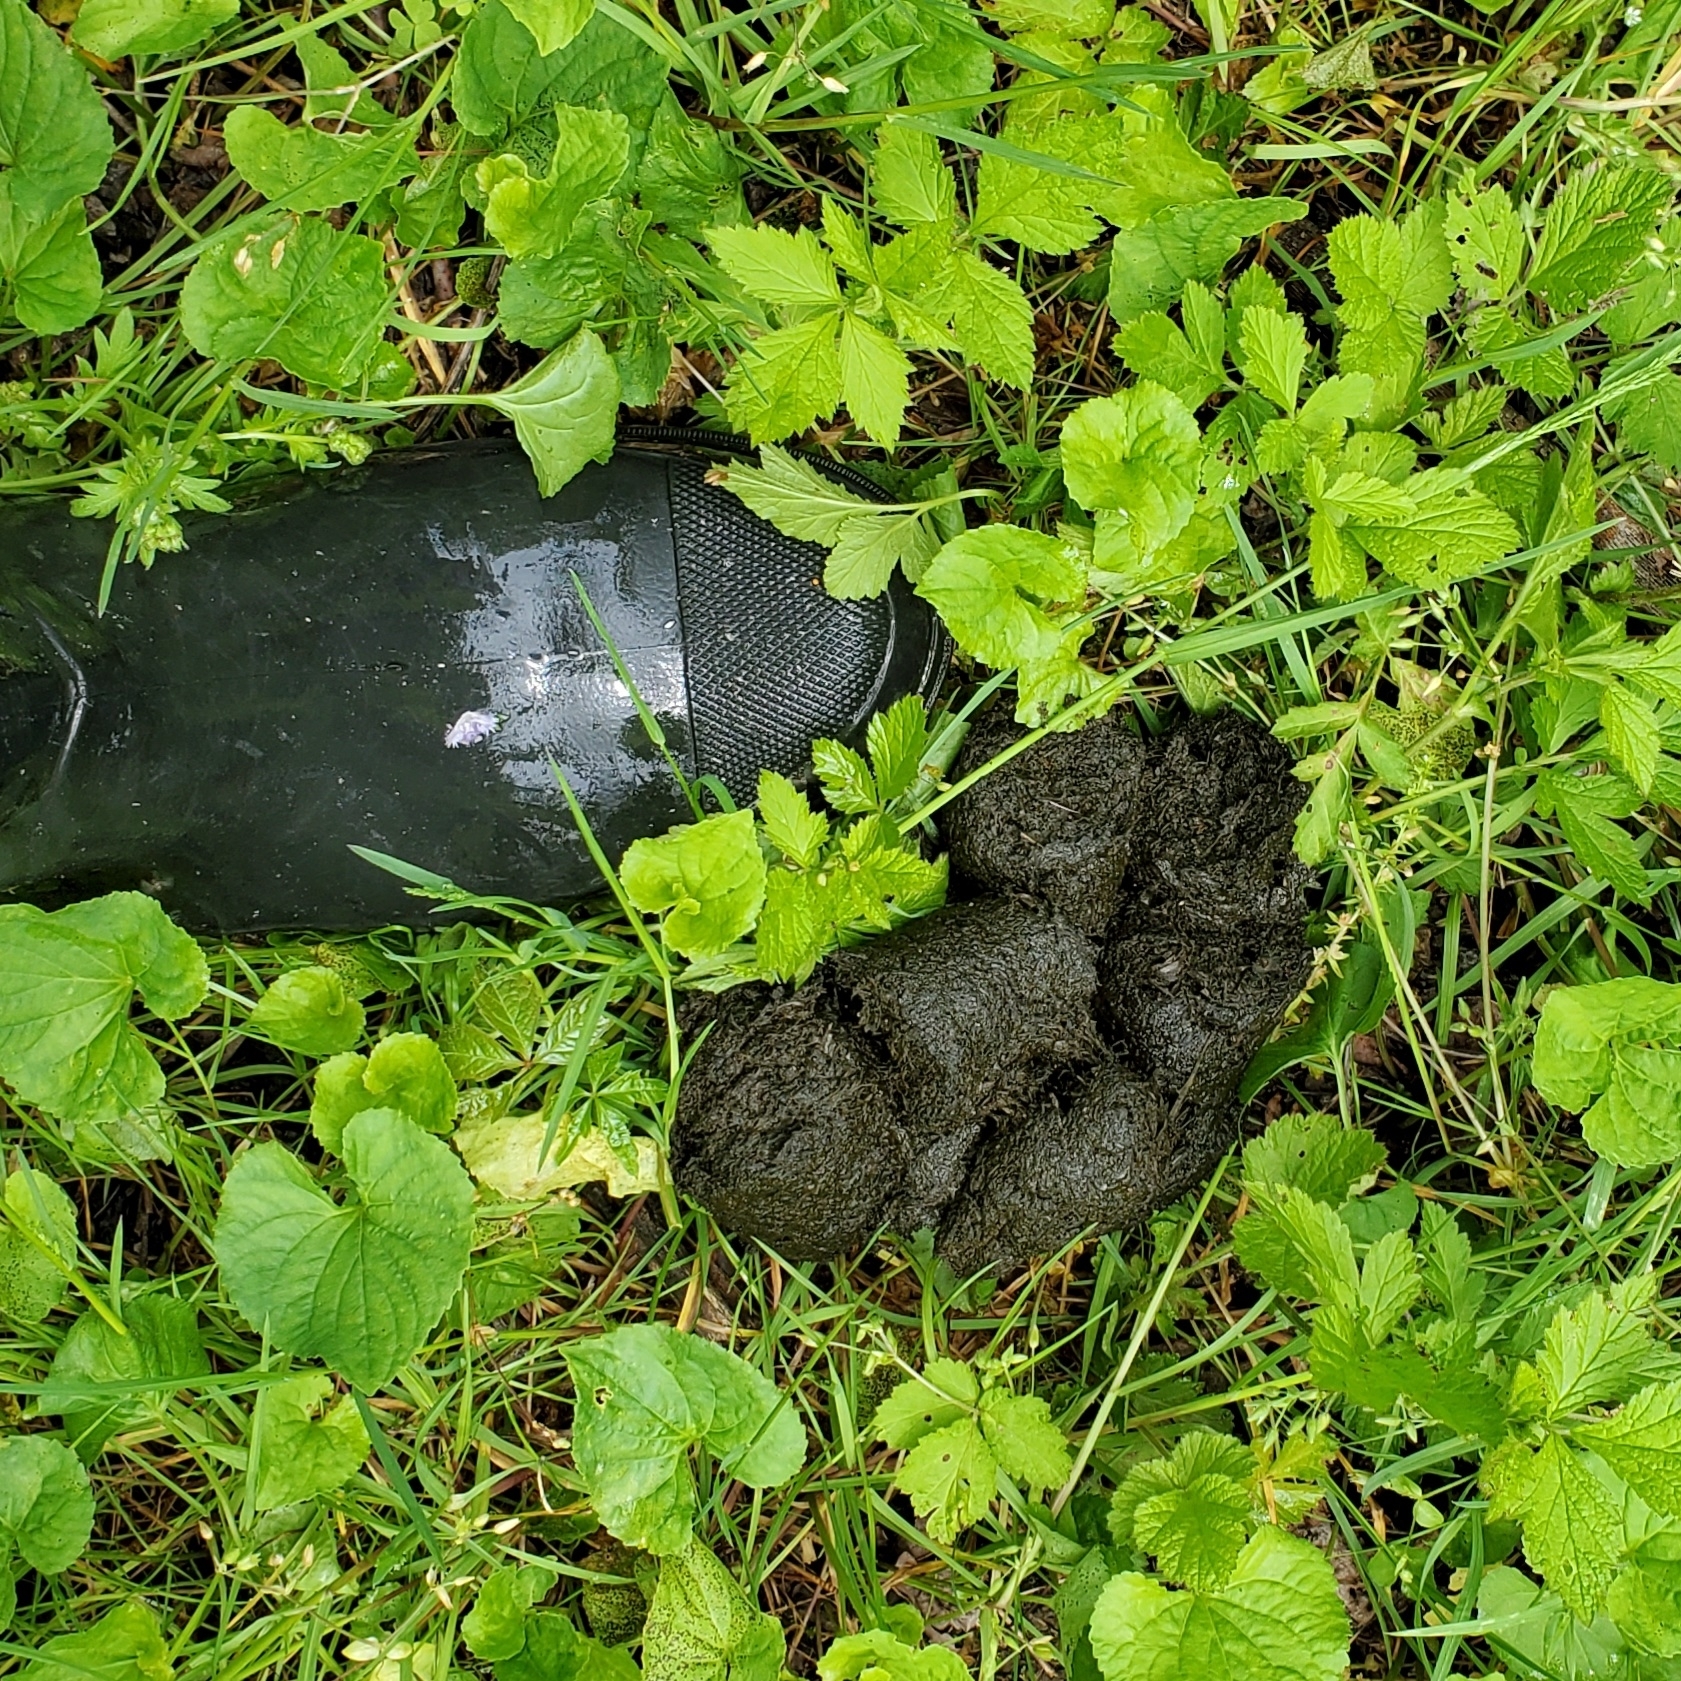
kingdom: Animalia
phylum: Chordata
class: Mammalia
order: Carnivora
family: Ursidae
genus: Ursus
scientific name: Ursus americanus
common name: American black bear
